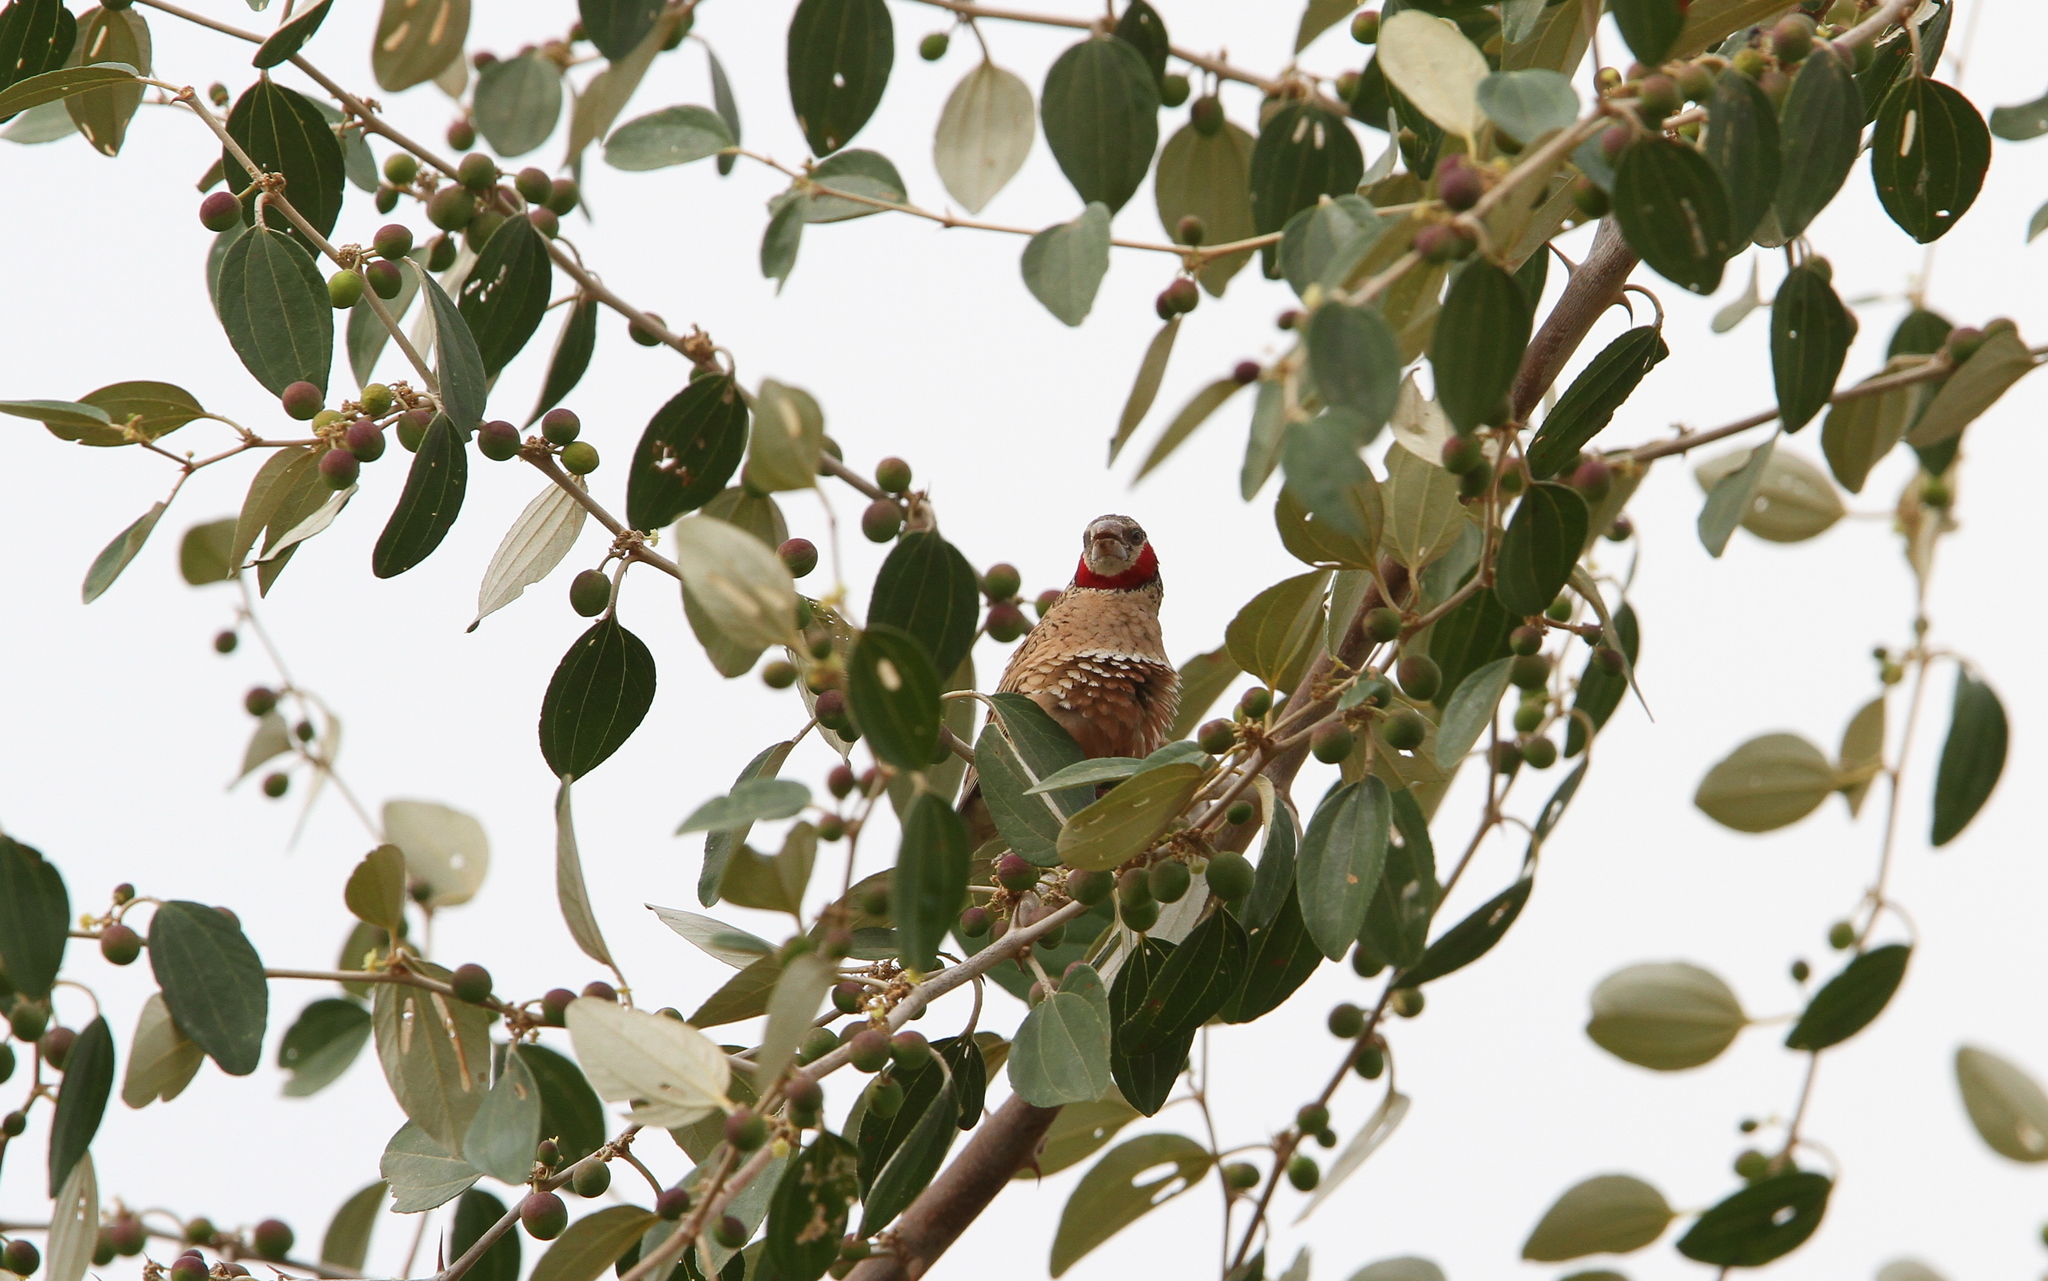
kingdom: Animalia
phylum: Chordata
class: Aves
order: Passeriformes
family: Estrildidae
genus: Amadina
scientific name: Amadina fasciata
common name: Cut-throat finch
